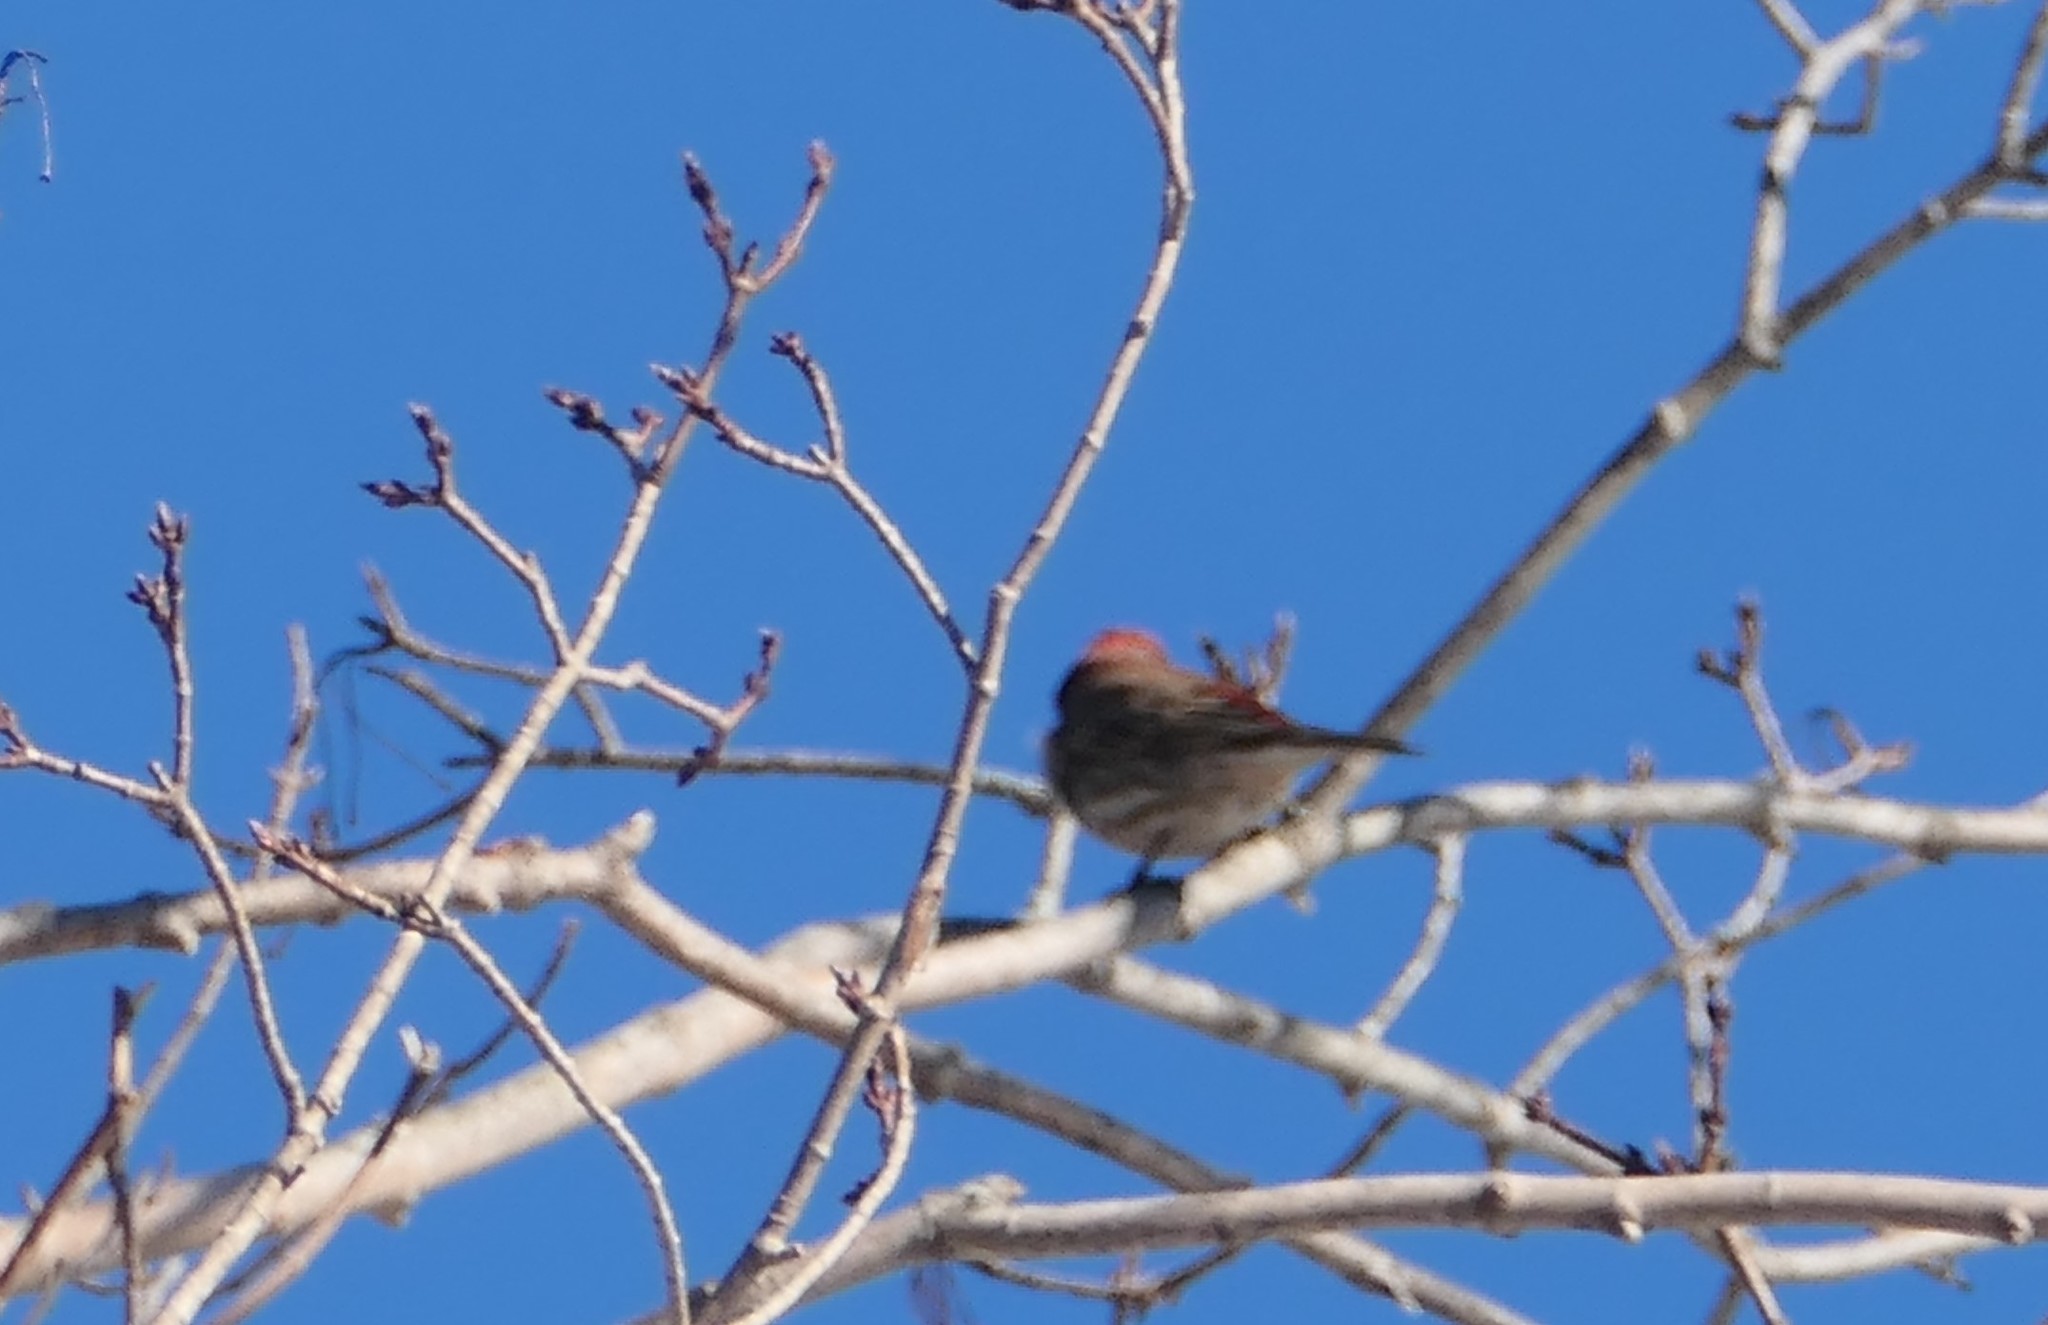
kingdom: Animalia
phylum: Chordata
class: Aves
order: Passeriformes
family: Fringillidae
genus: Haemorhous
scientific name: Haemorhous mexicanus
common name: House finch
